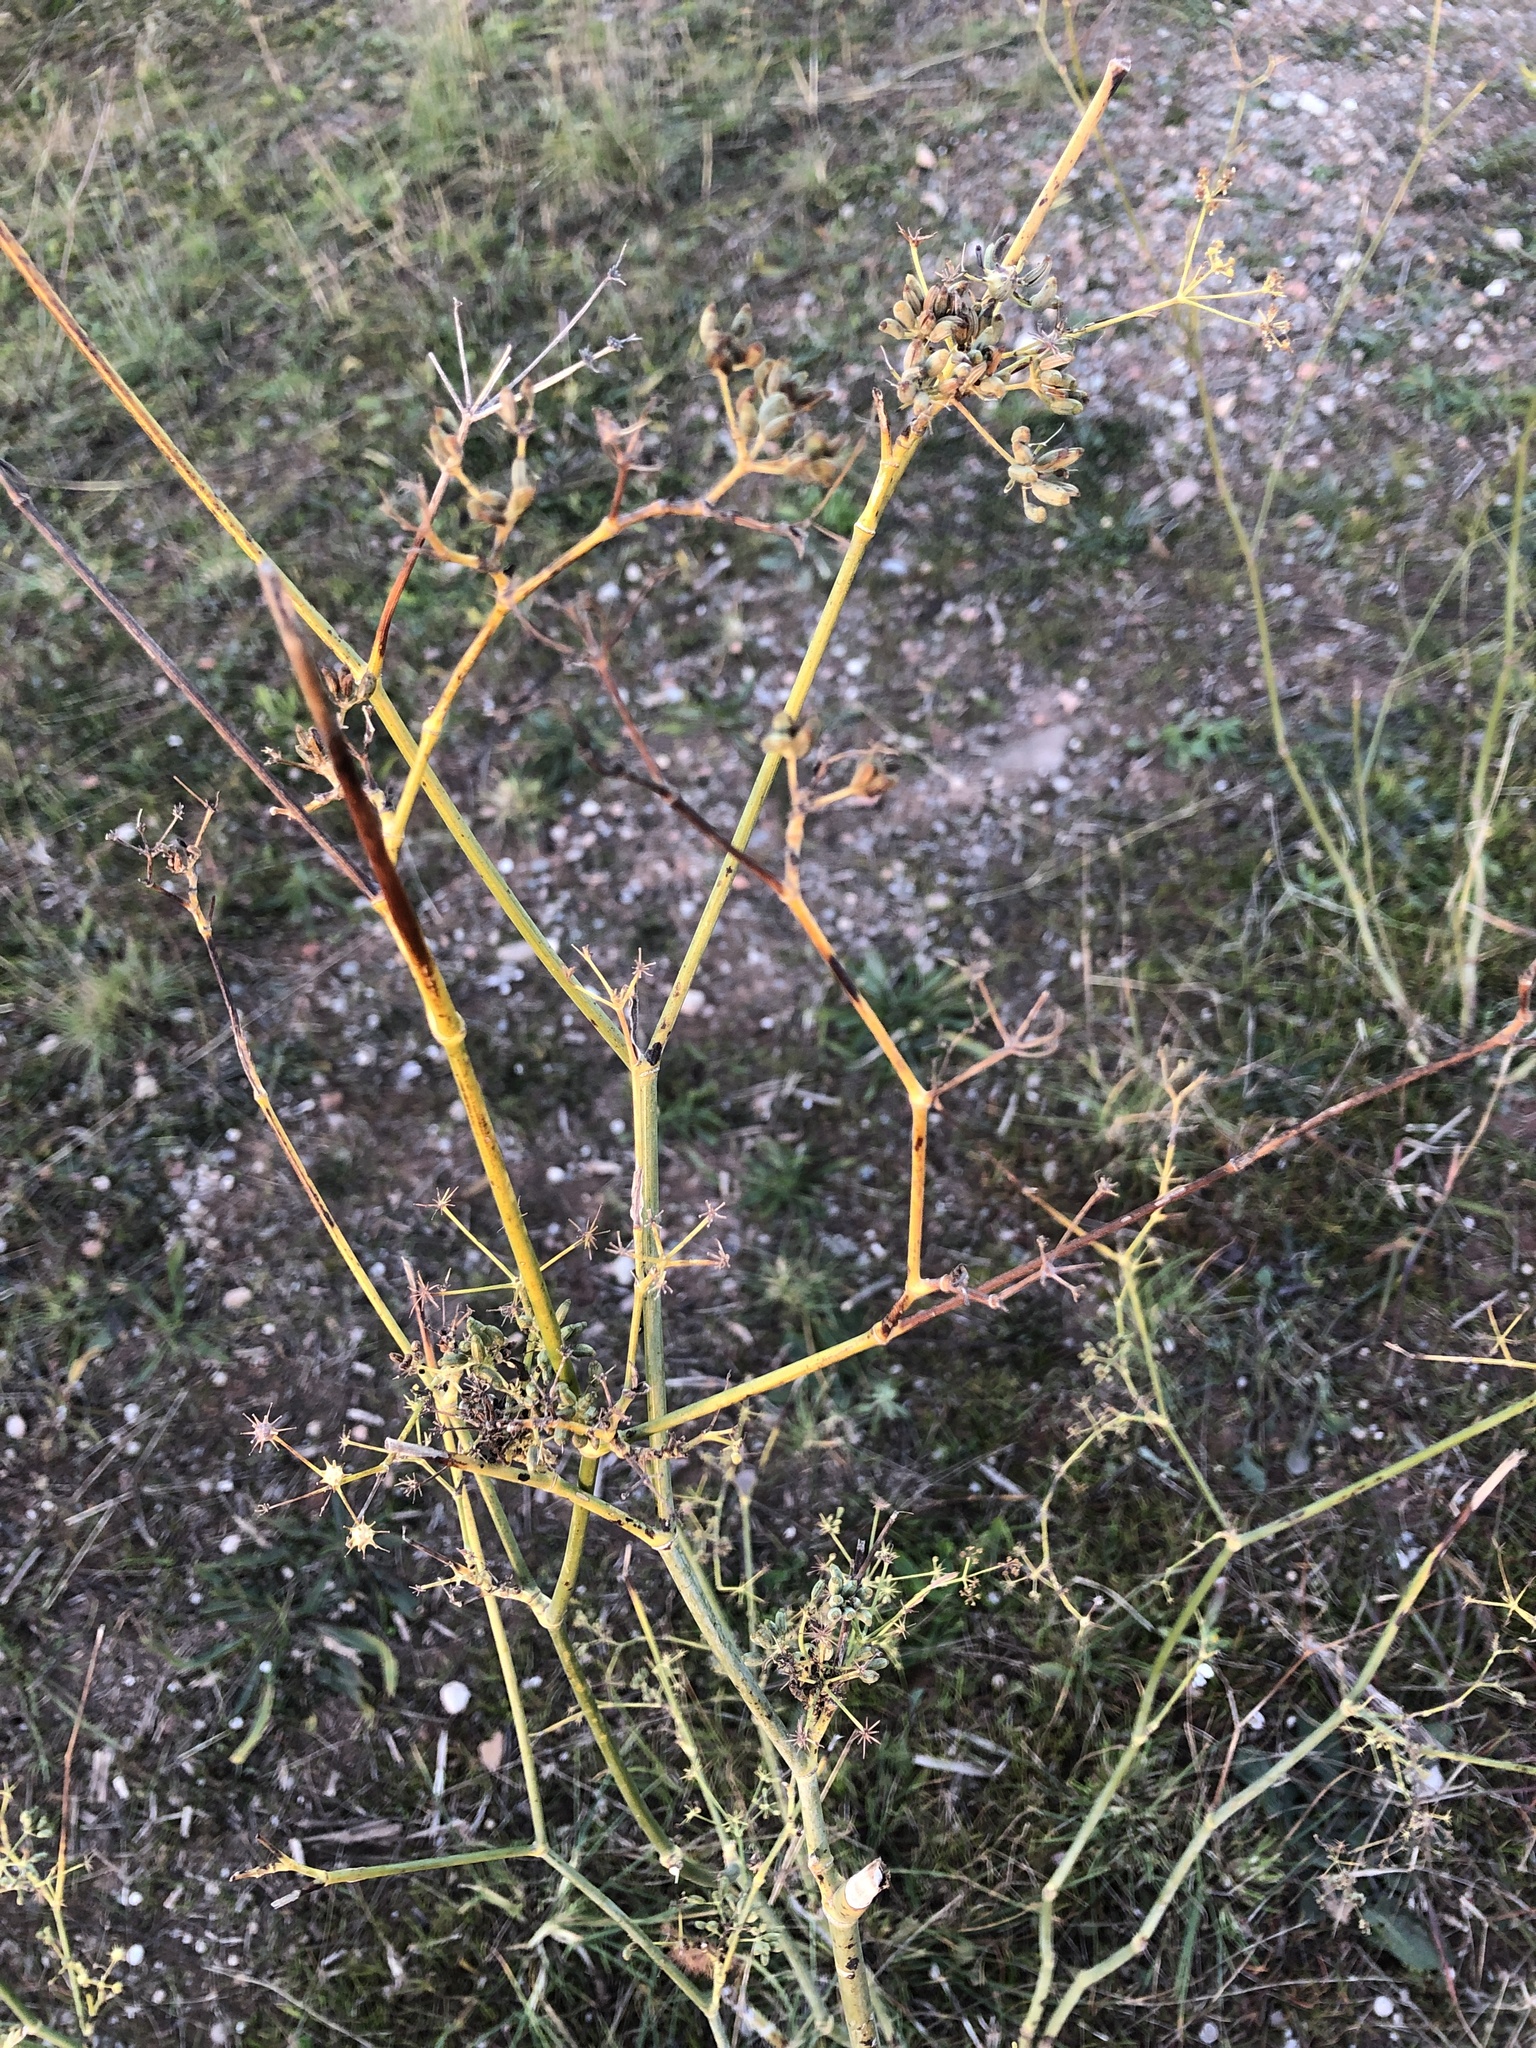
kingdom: Plantae
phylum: Tracheophyta
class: Magnoliopsida
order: Apiales
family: Apiaceae
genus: Foeniculum
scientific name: Foeniculum vulgare
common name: Fennel
